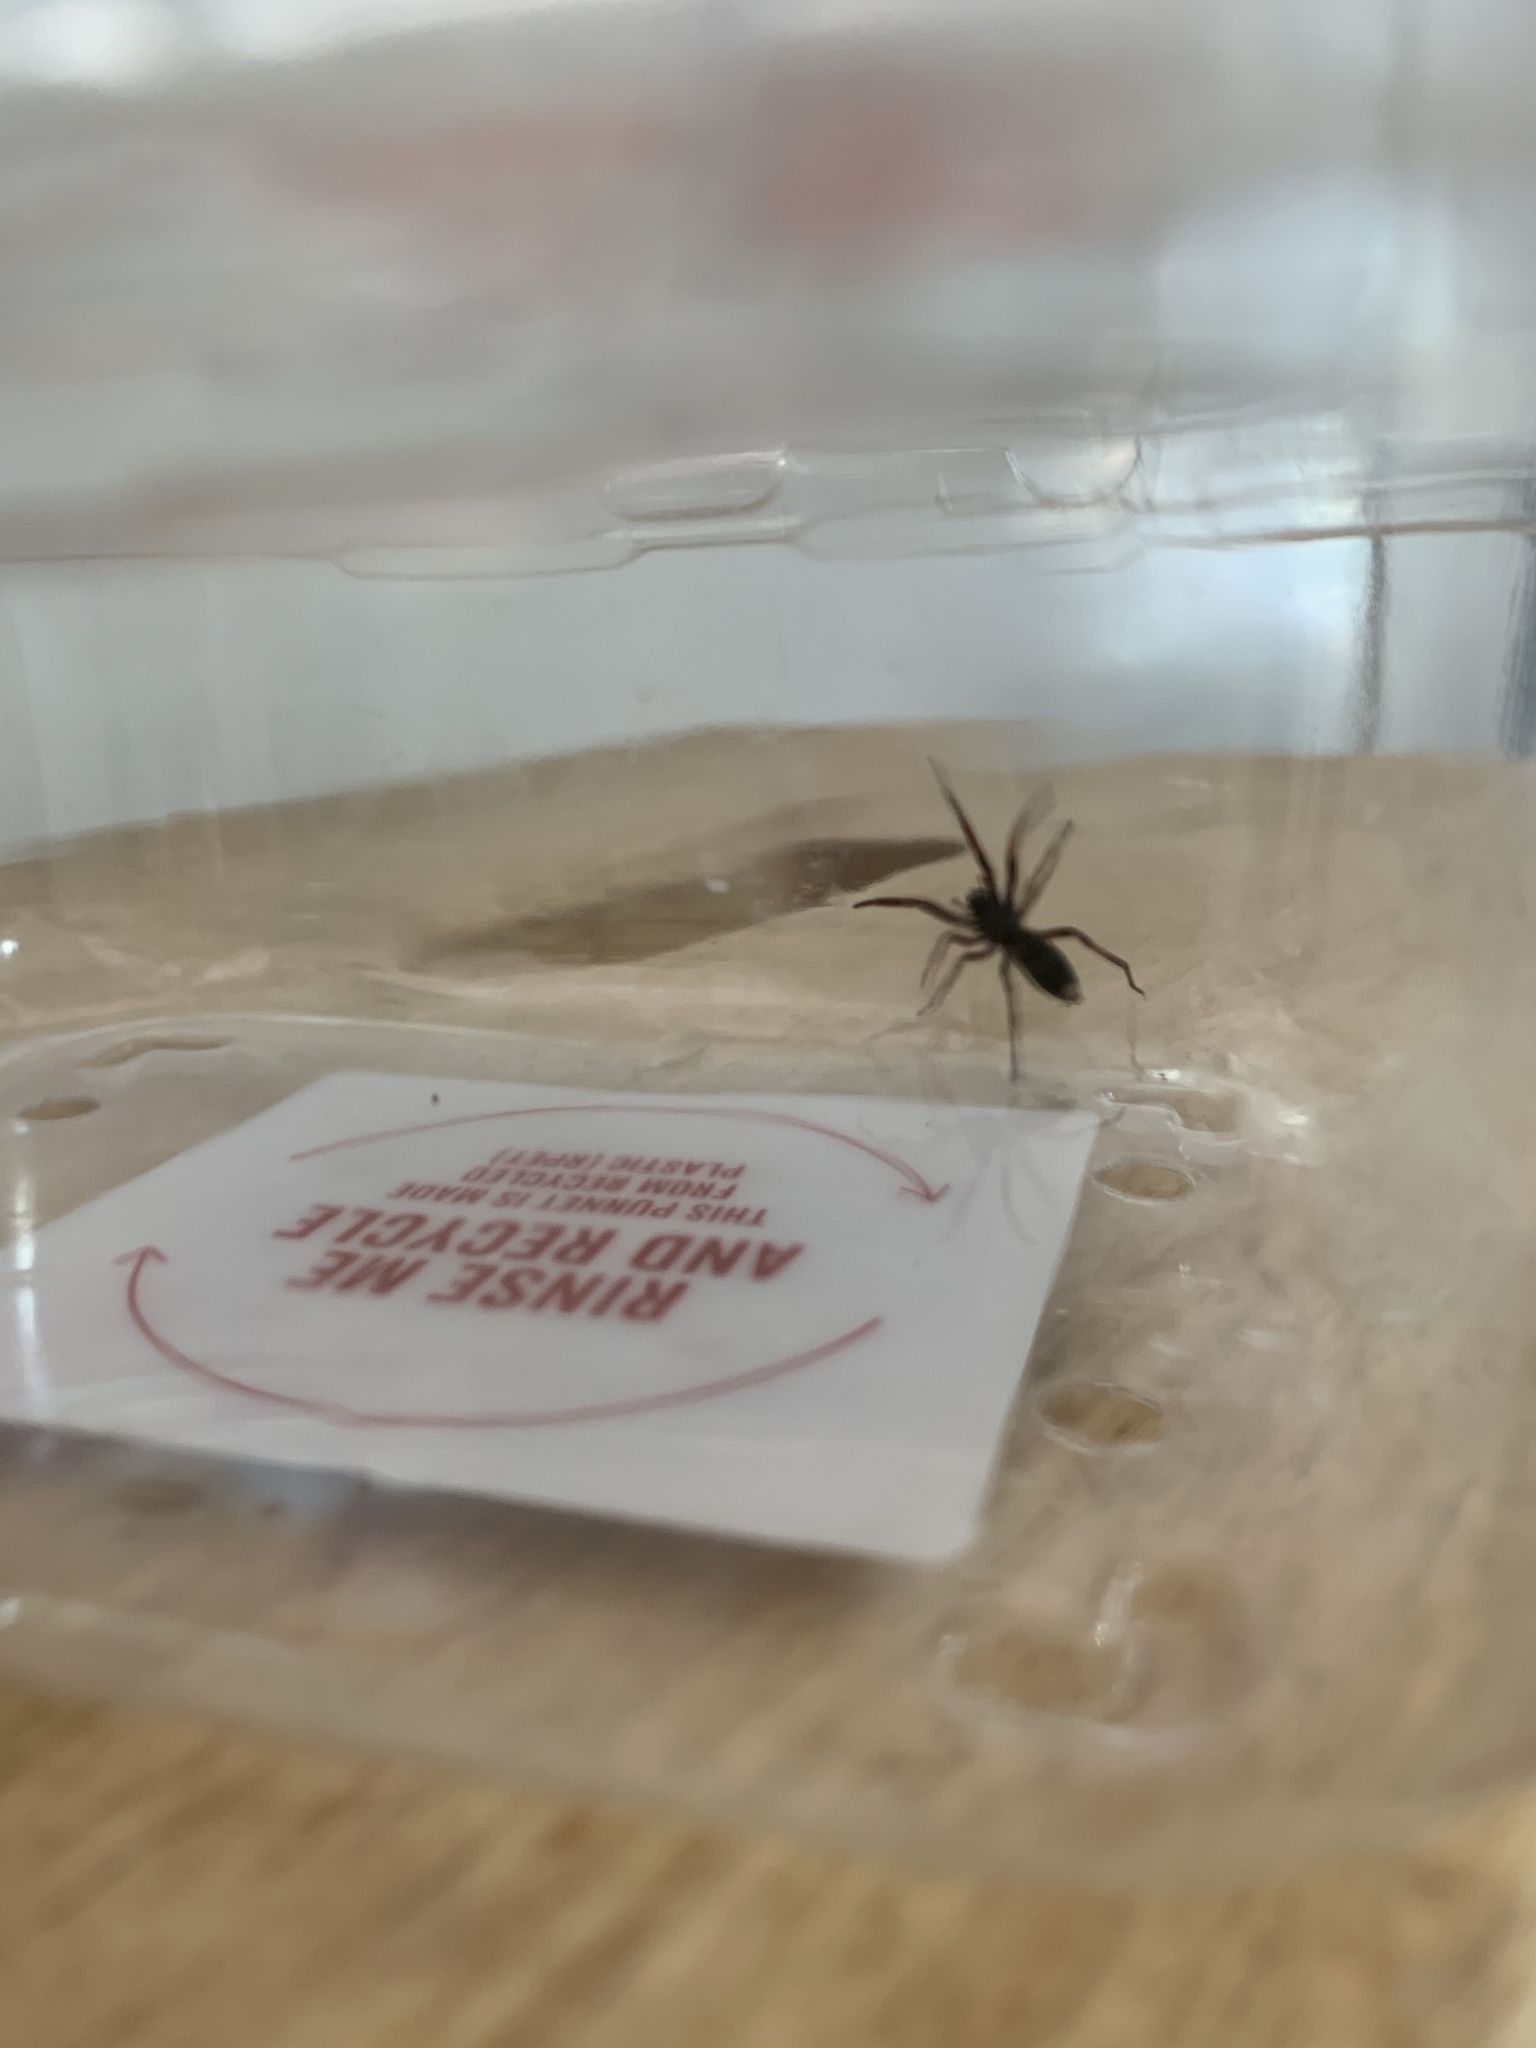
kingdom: Animalia
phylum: Arthropoda
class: Arachnida
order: Araneae
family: Lamponidae
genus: Lampona
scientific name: Lampona murina
